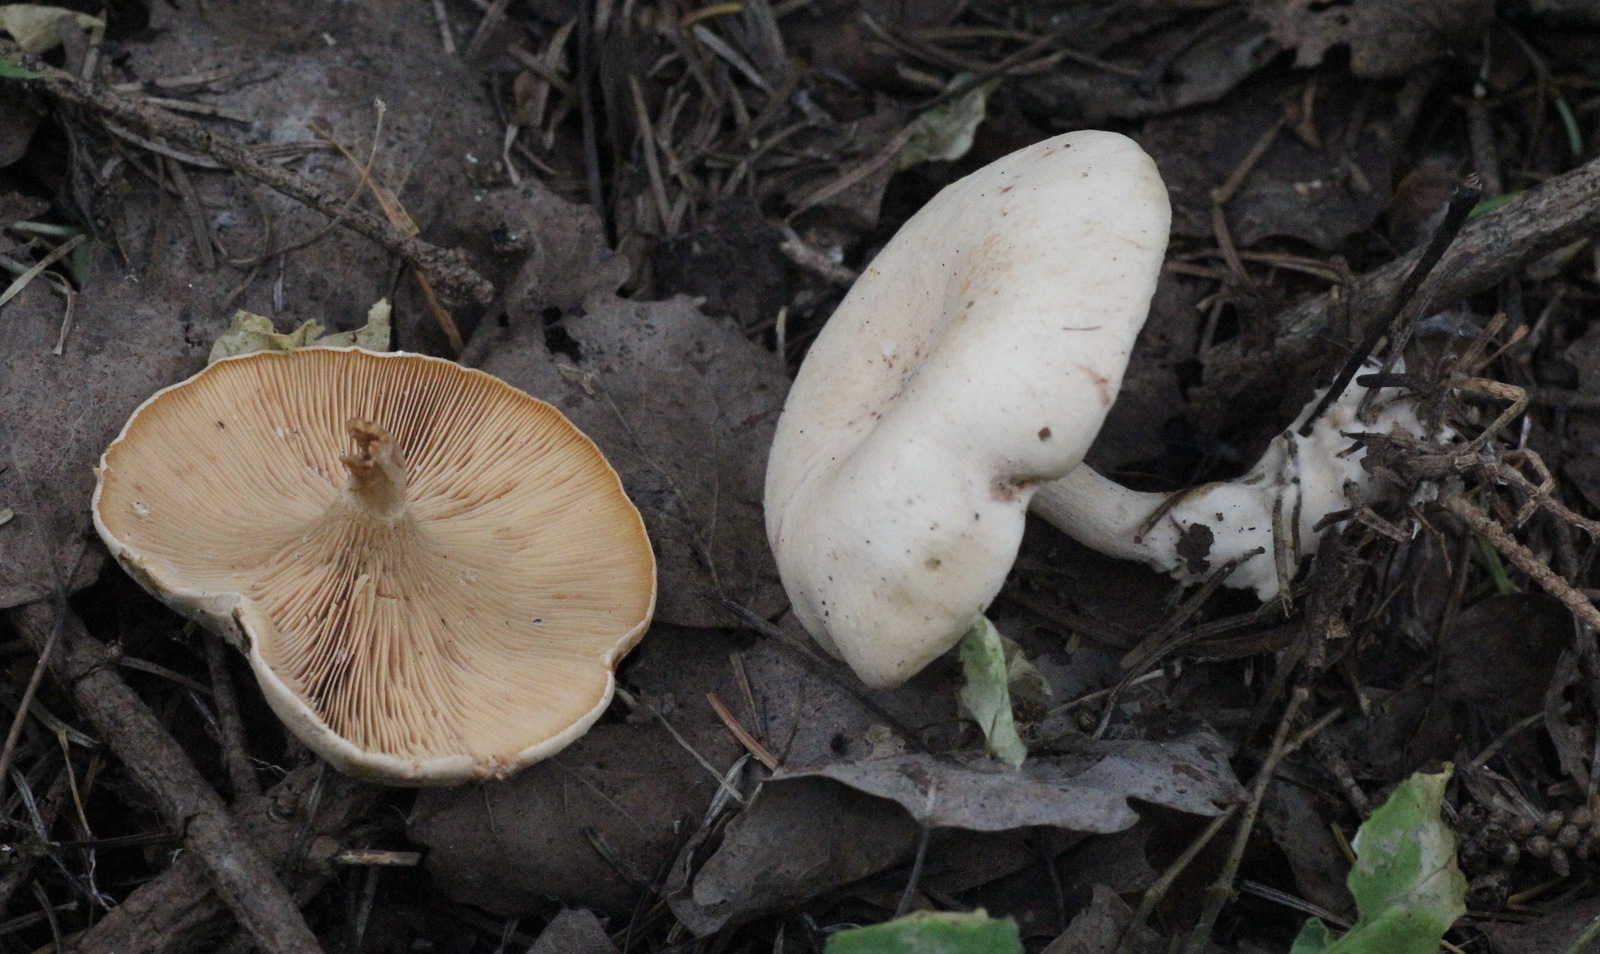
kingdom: Fungi
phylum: Basidiomycota
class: Agaricomycetes
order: Agaricales
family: Tricholomataceae
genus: Paralepista
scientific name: Paralepista flaccida
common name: Tawny funnel cap
